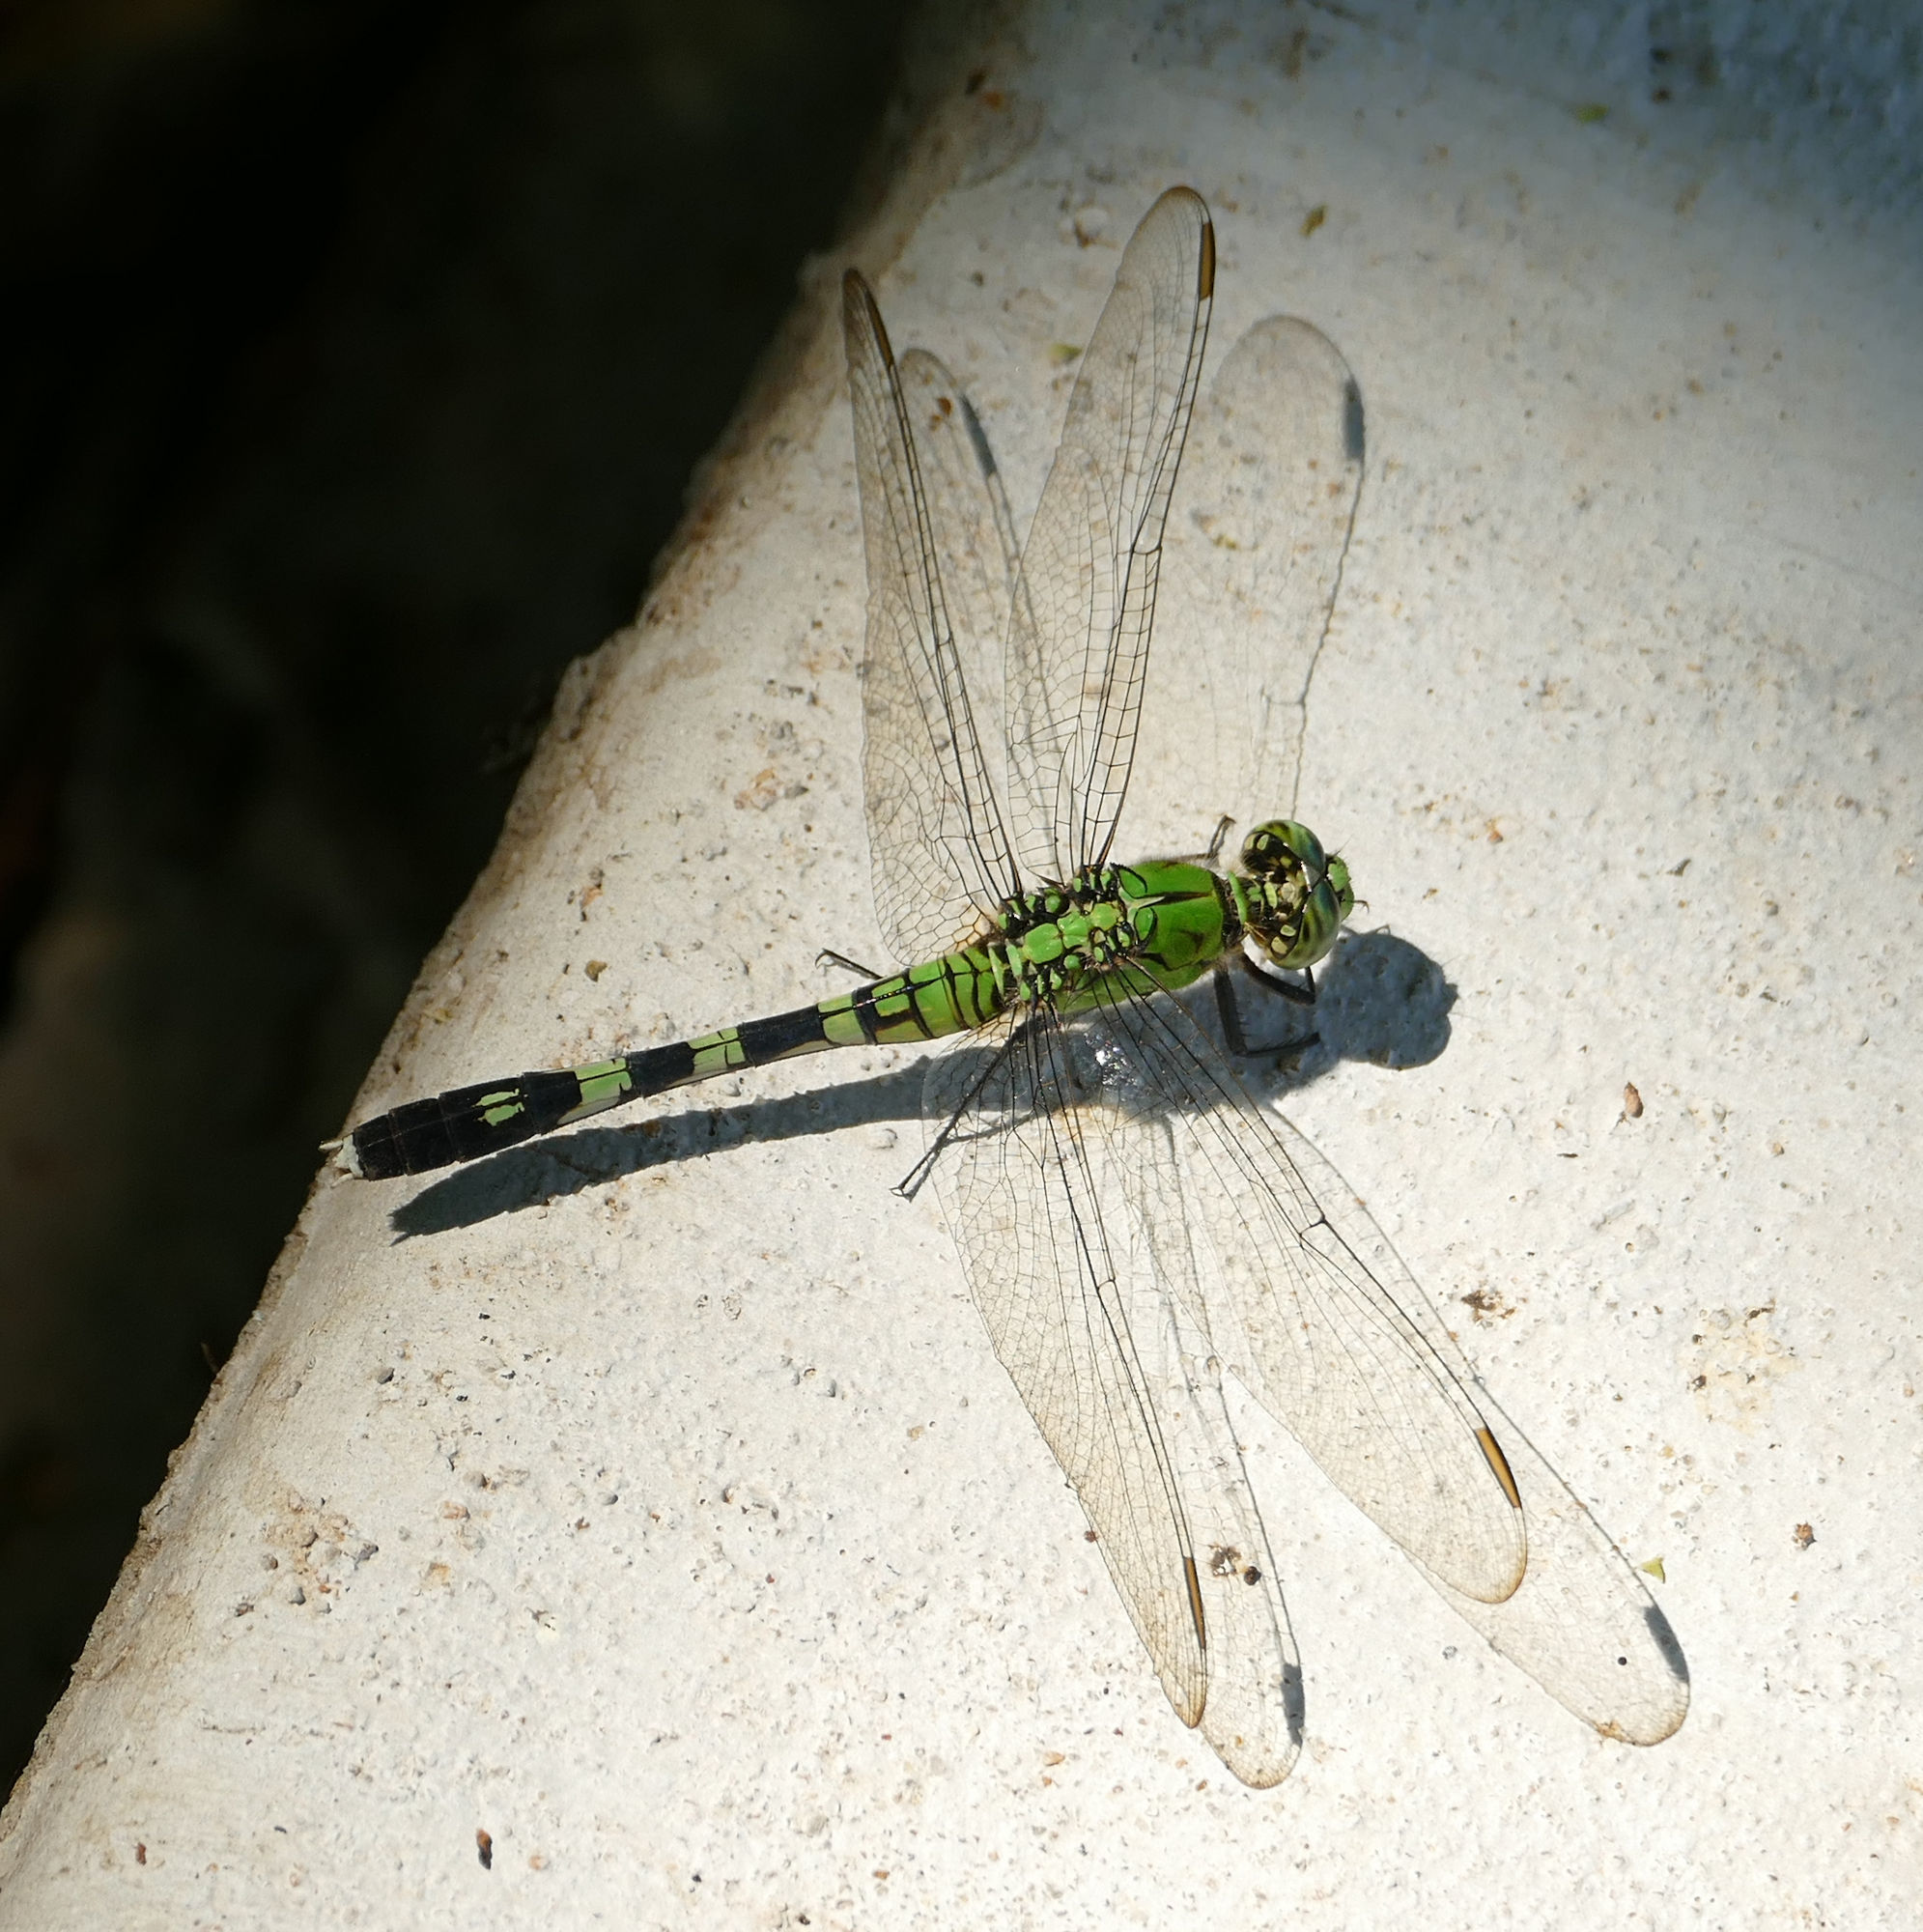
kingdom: Animalia
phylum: Arthropoda
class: Insecta
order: Odonata
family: Libellulidae
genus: Erythemis
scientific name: Erythemis simplicicollis
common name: Eastern pondhawk
